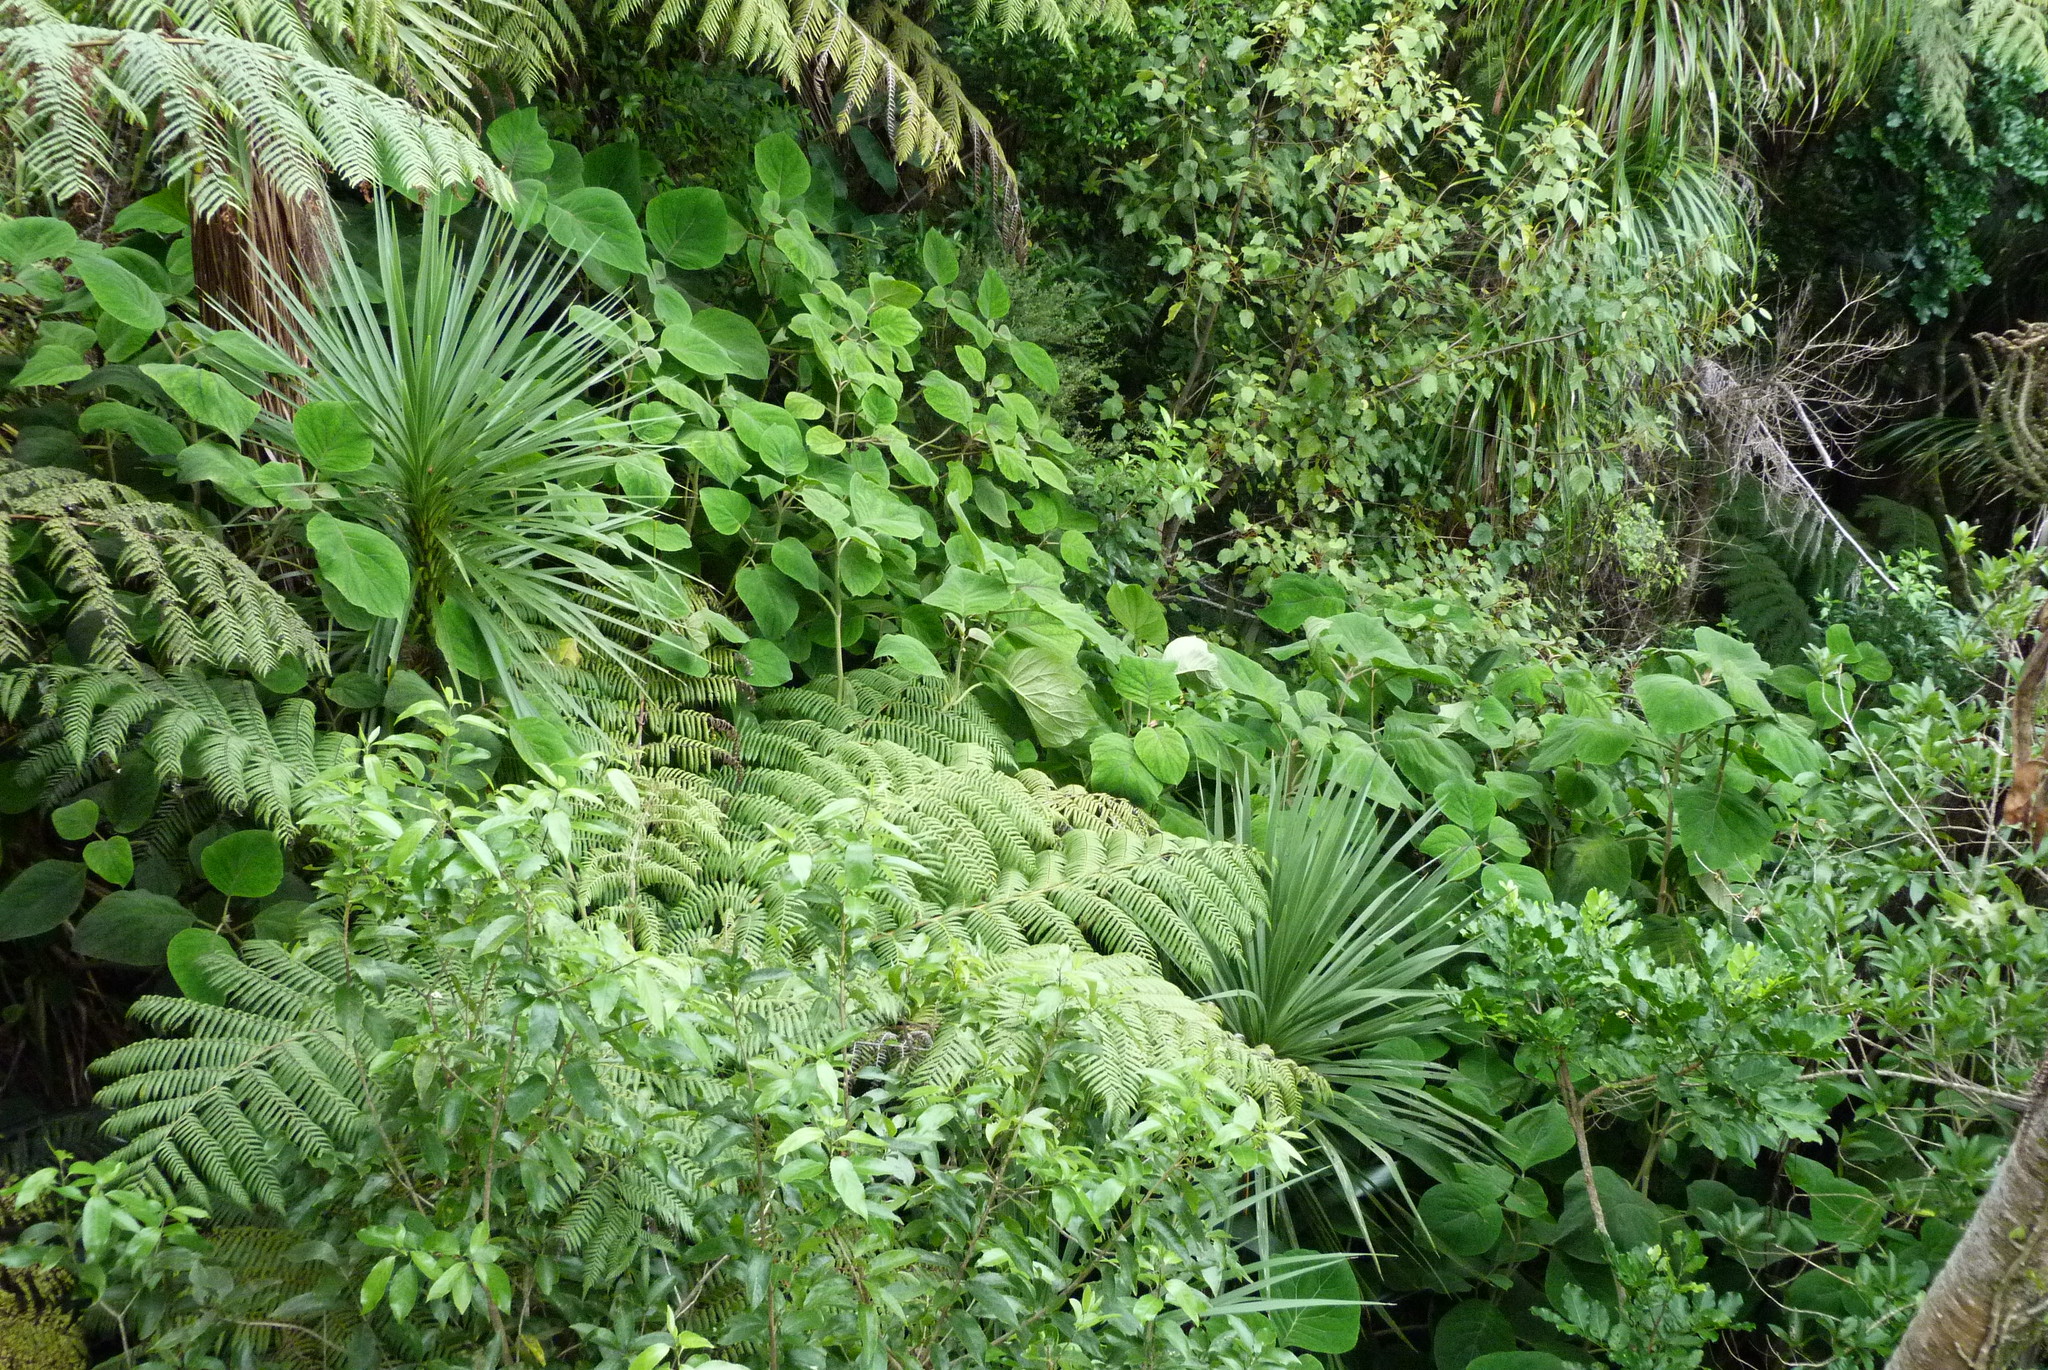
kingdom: Plantae
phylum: Tracheophyta
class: Magnoliopsida
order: Asterales
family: Asteraceae
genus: Bartlettina
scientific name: Bartlettina sordida
